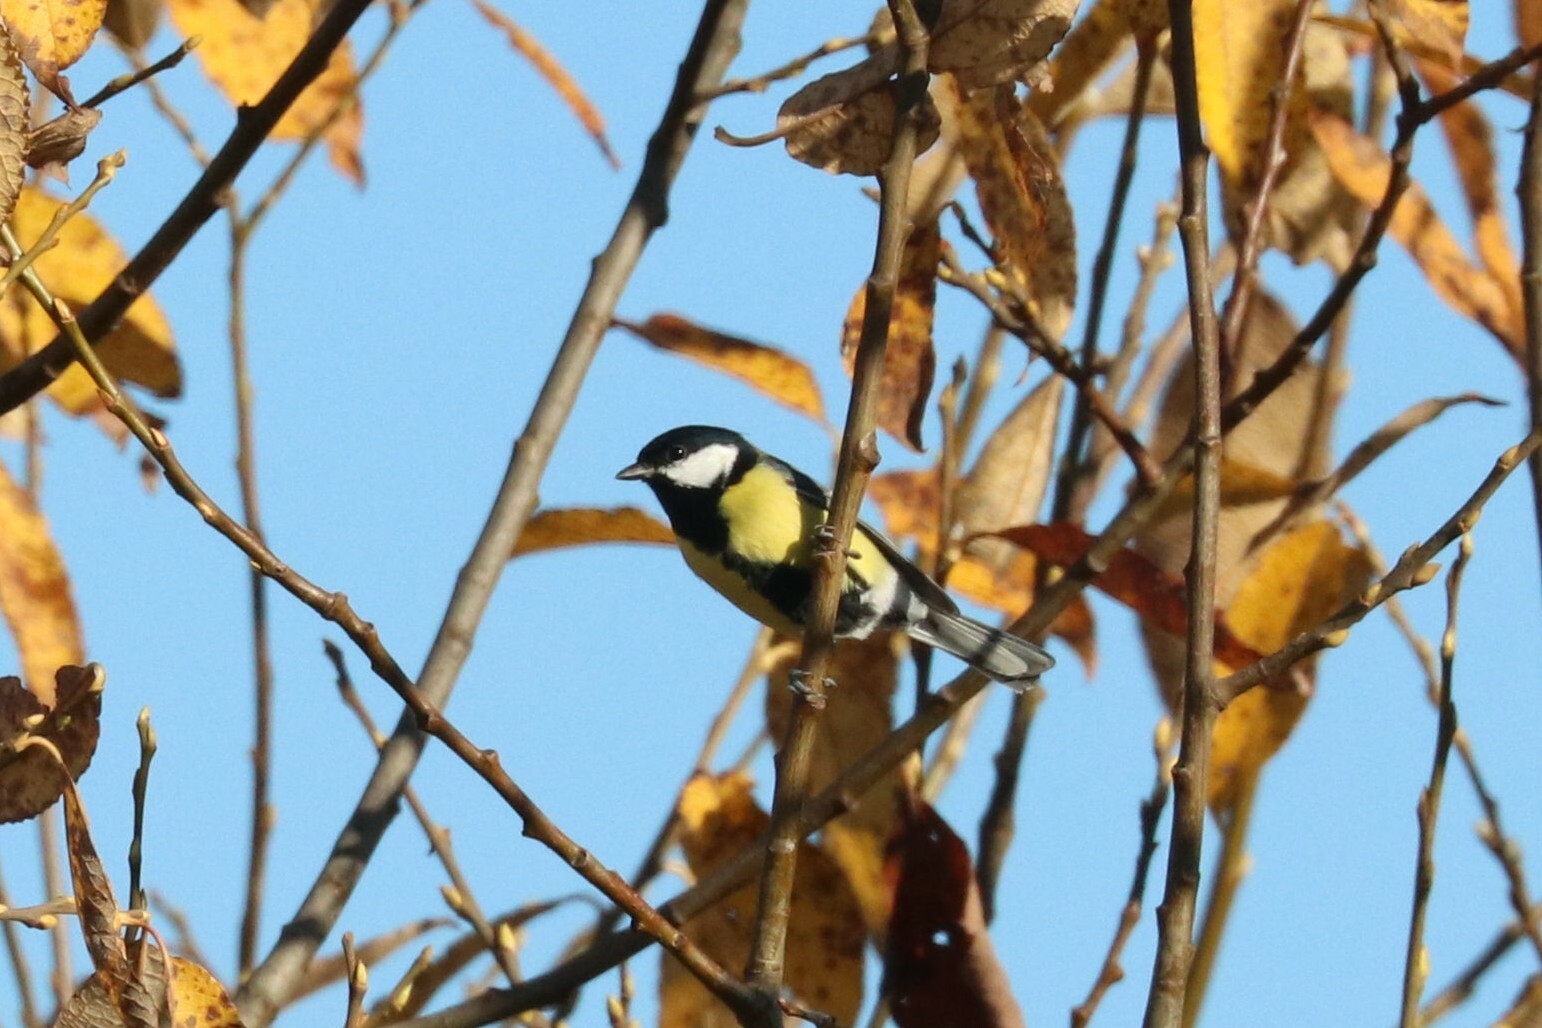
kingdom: Animalia
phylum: Chordata
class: Aves
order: Passeriformes
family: Paridae
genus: Parus
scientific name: Parus major
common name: Great tit
